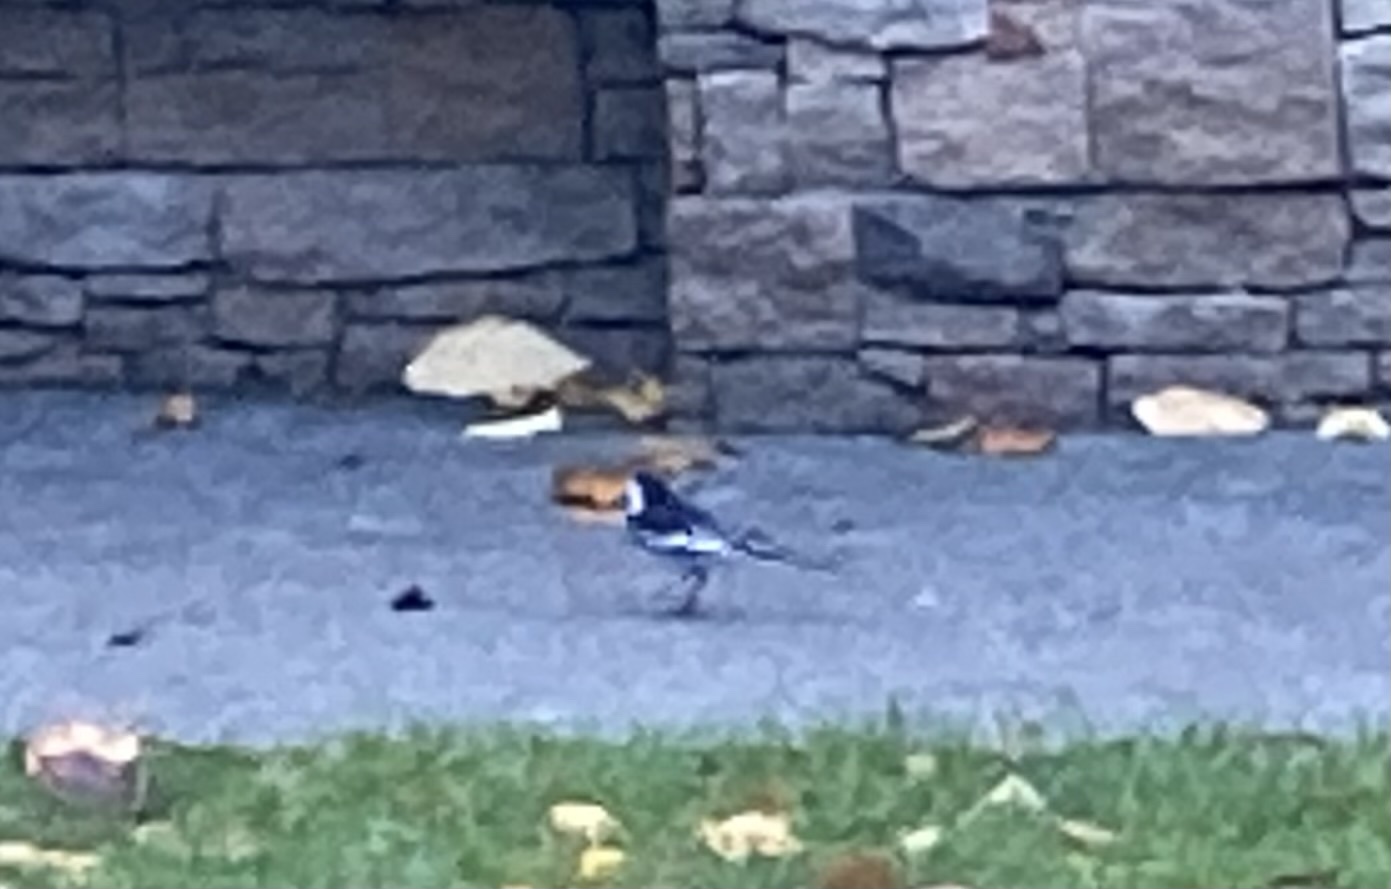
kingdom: Animalia
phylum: Chordata
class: Aves
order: Passeriformes
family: Motacillidae
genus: Motacilla
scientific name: Motacilla alba
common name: White wagtail
